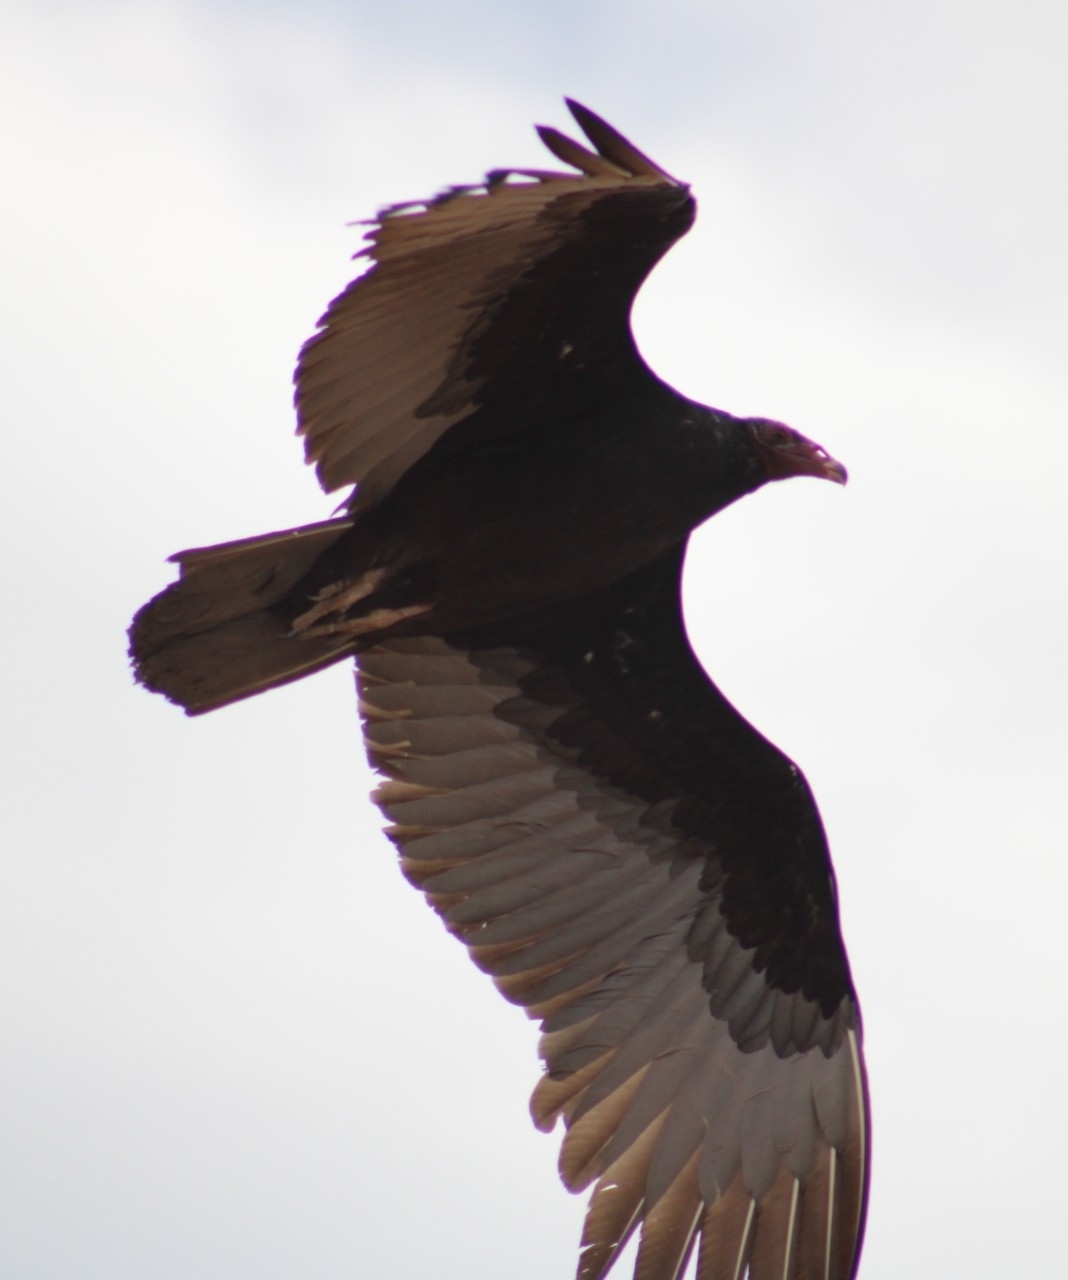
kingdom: Animalia
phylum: Chordata
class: Aves
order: Accipitriformes
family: Cathartidae
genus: Cathartes
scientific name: Cathartes aura
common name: Turkey vulture
